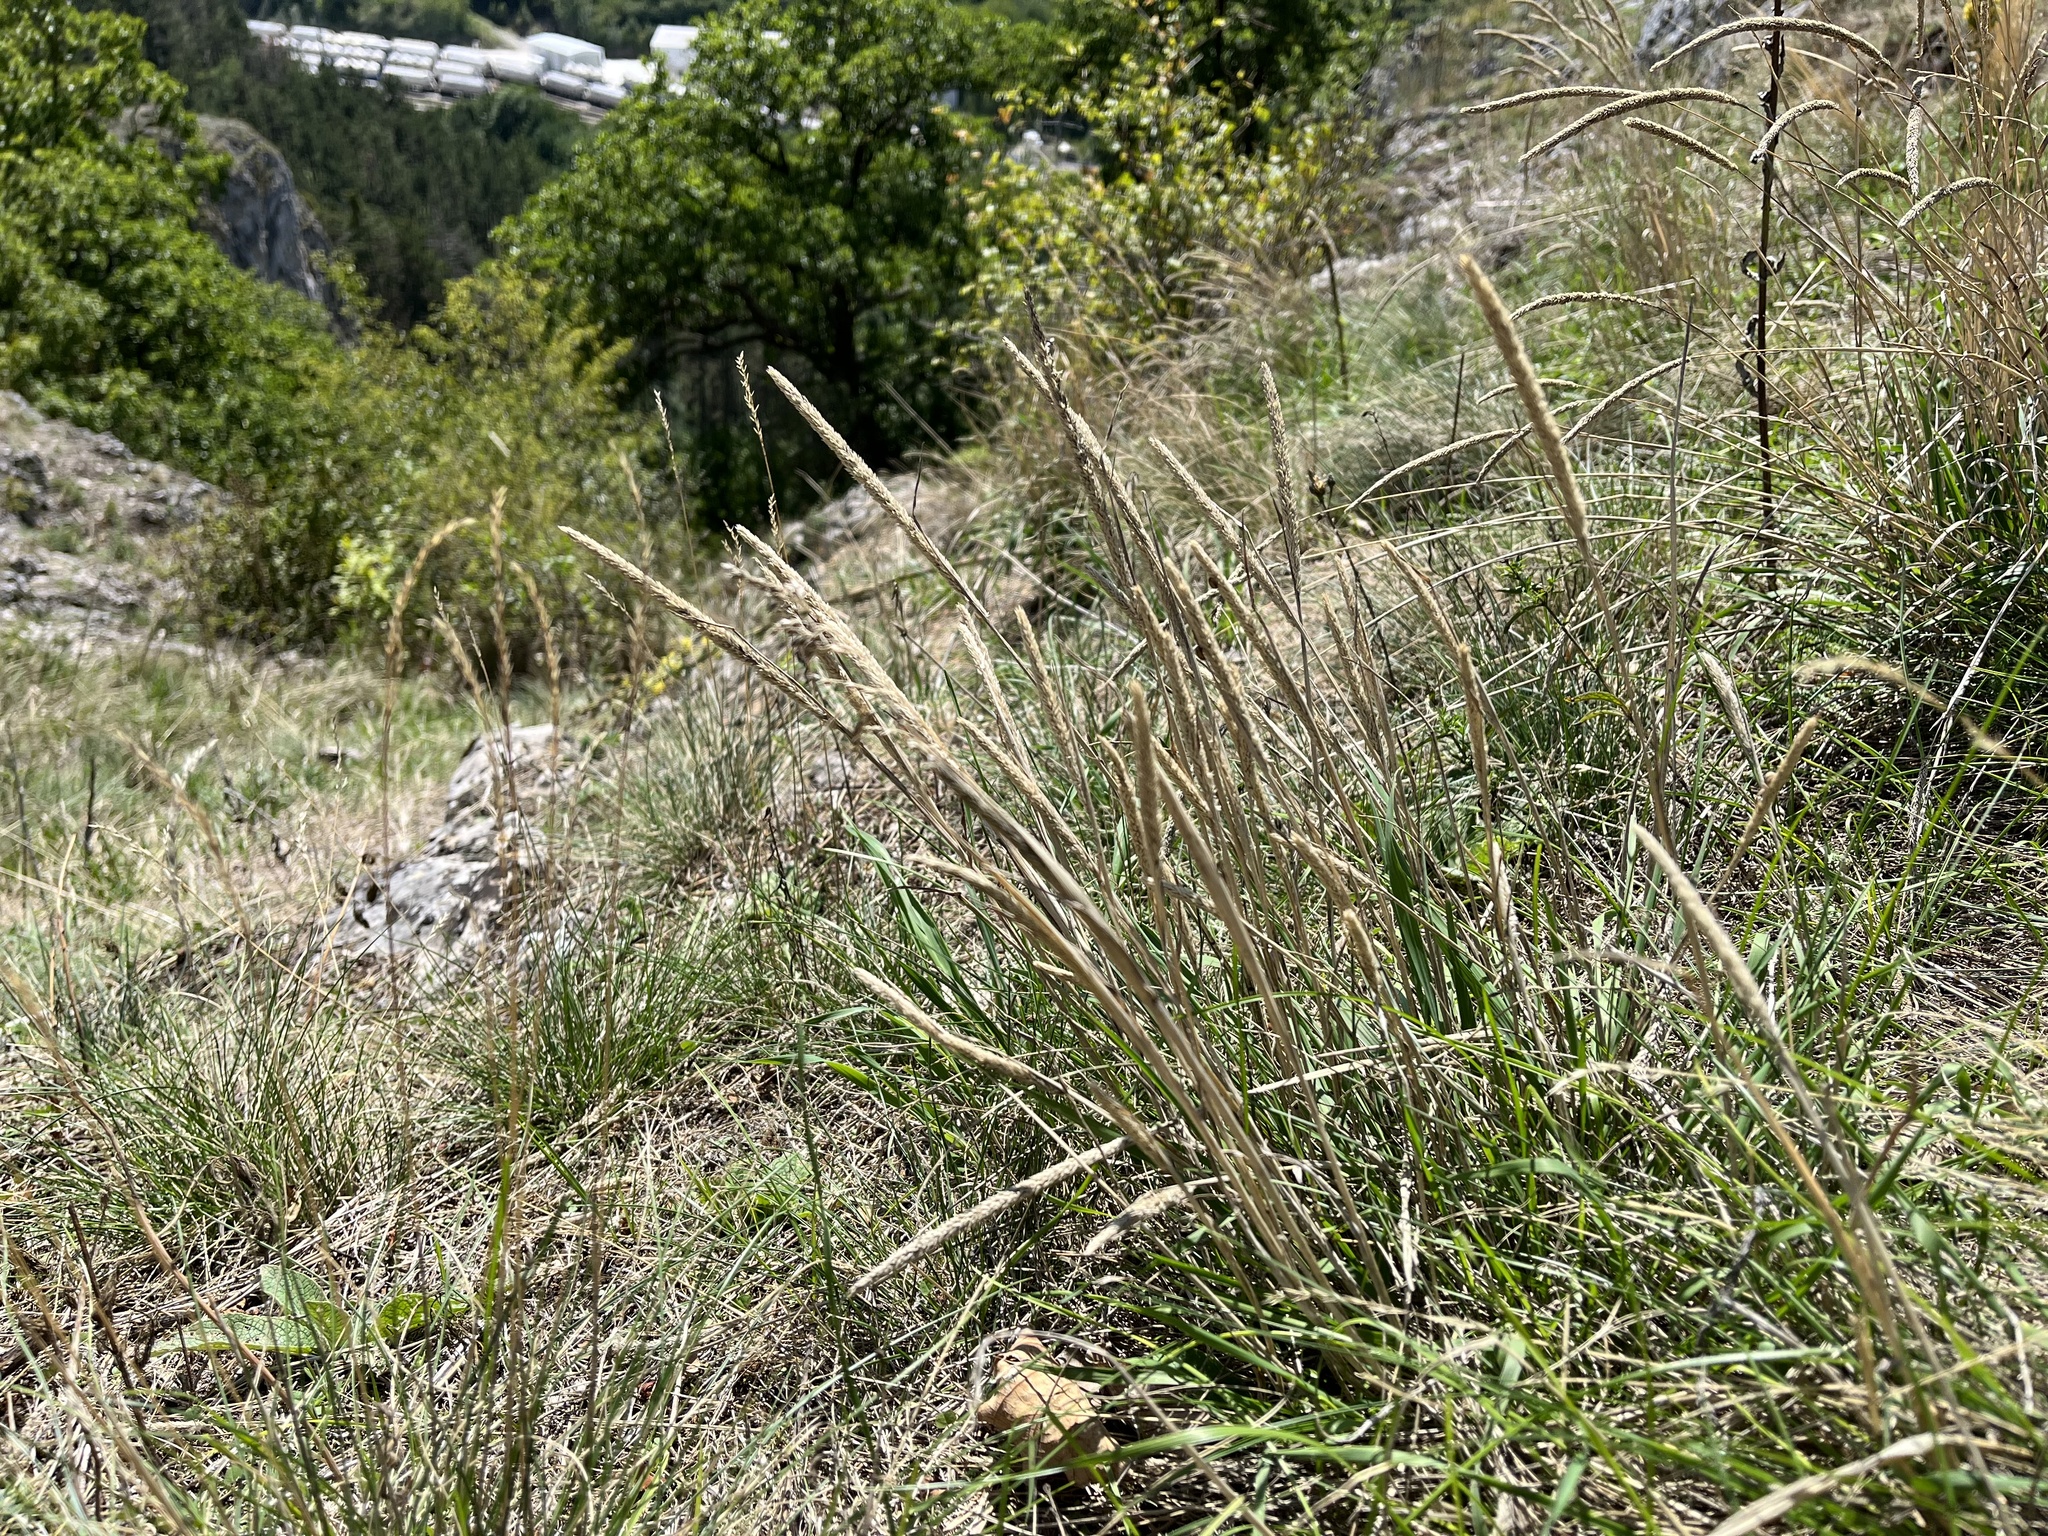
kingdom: Plantae
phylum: Tracheophyta
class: Liliopsida
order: Poales
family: Poaceae
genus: Phleum
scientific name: Phleum phleoides
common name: Purple-stem cat's-tail
